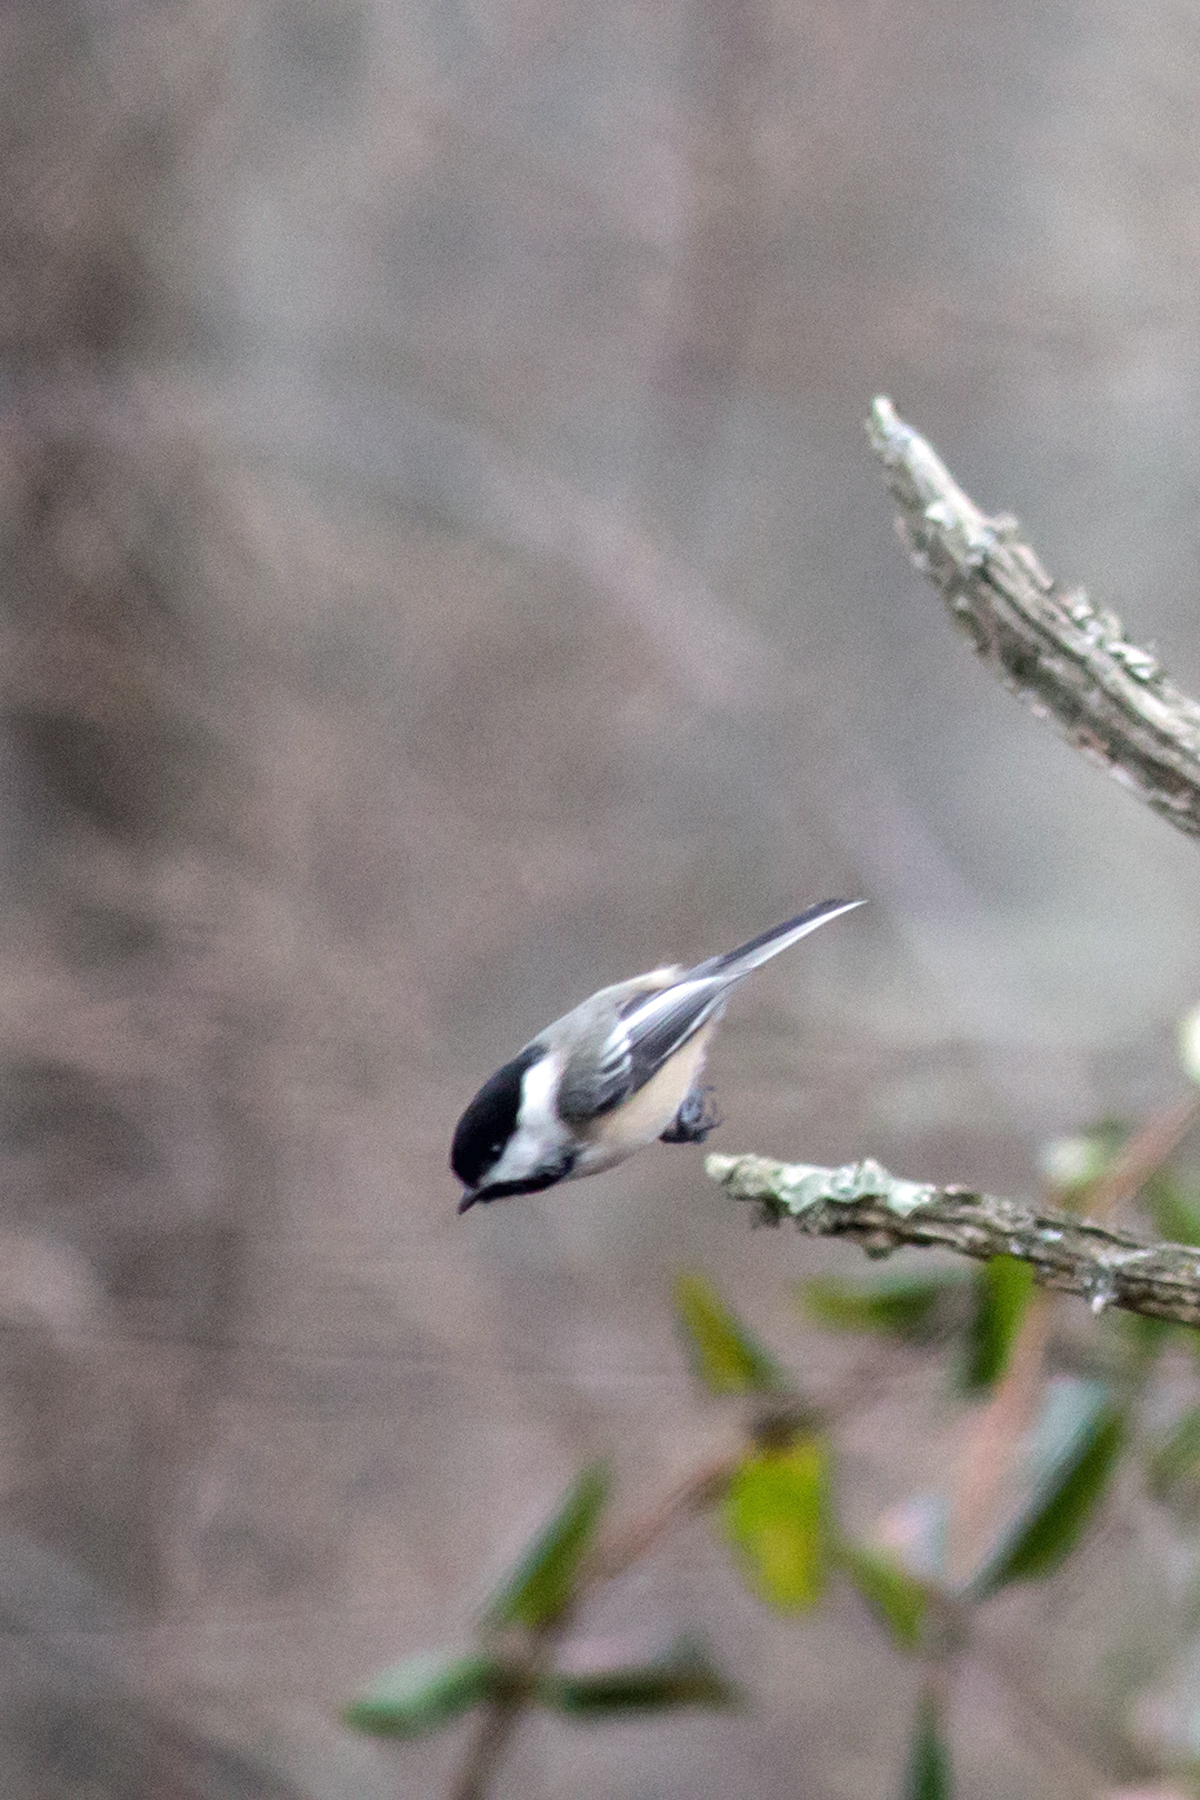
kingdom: Animalia
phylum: Chordata
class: Aves
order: Passeriformes
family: Paridae
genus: Poecile
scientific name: Poecile atricapillus
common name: Black-capped chickadee
